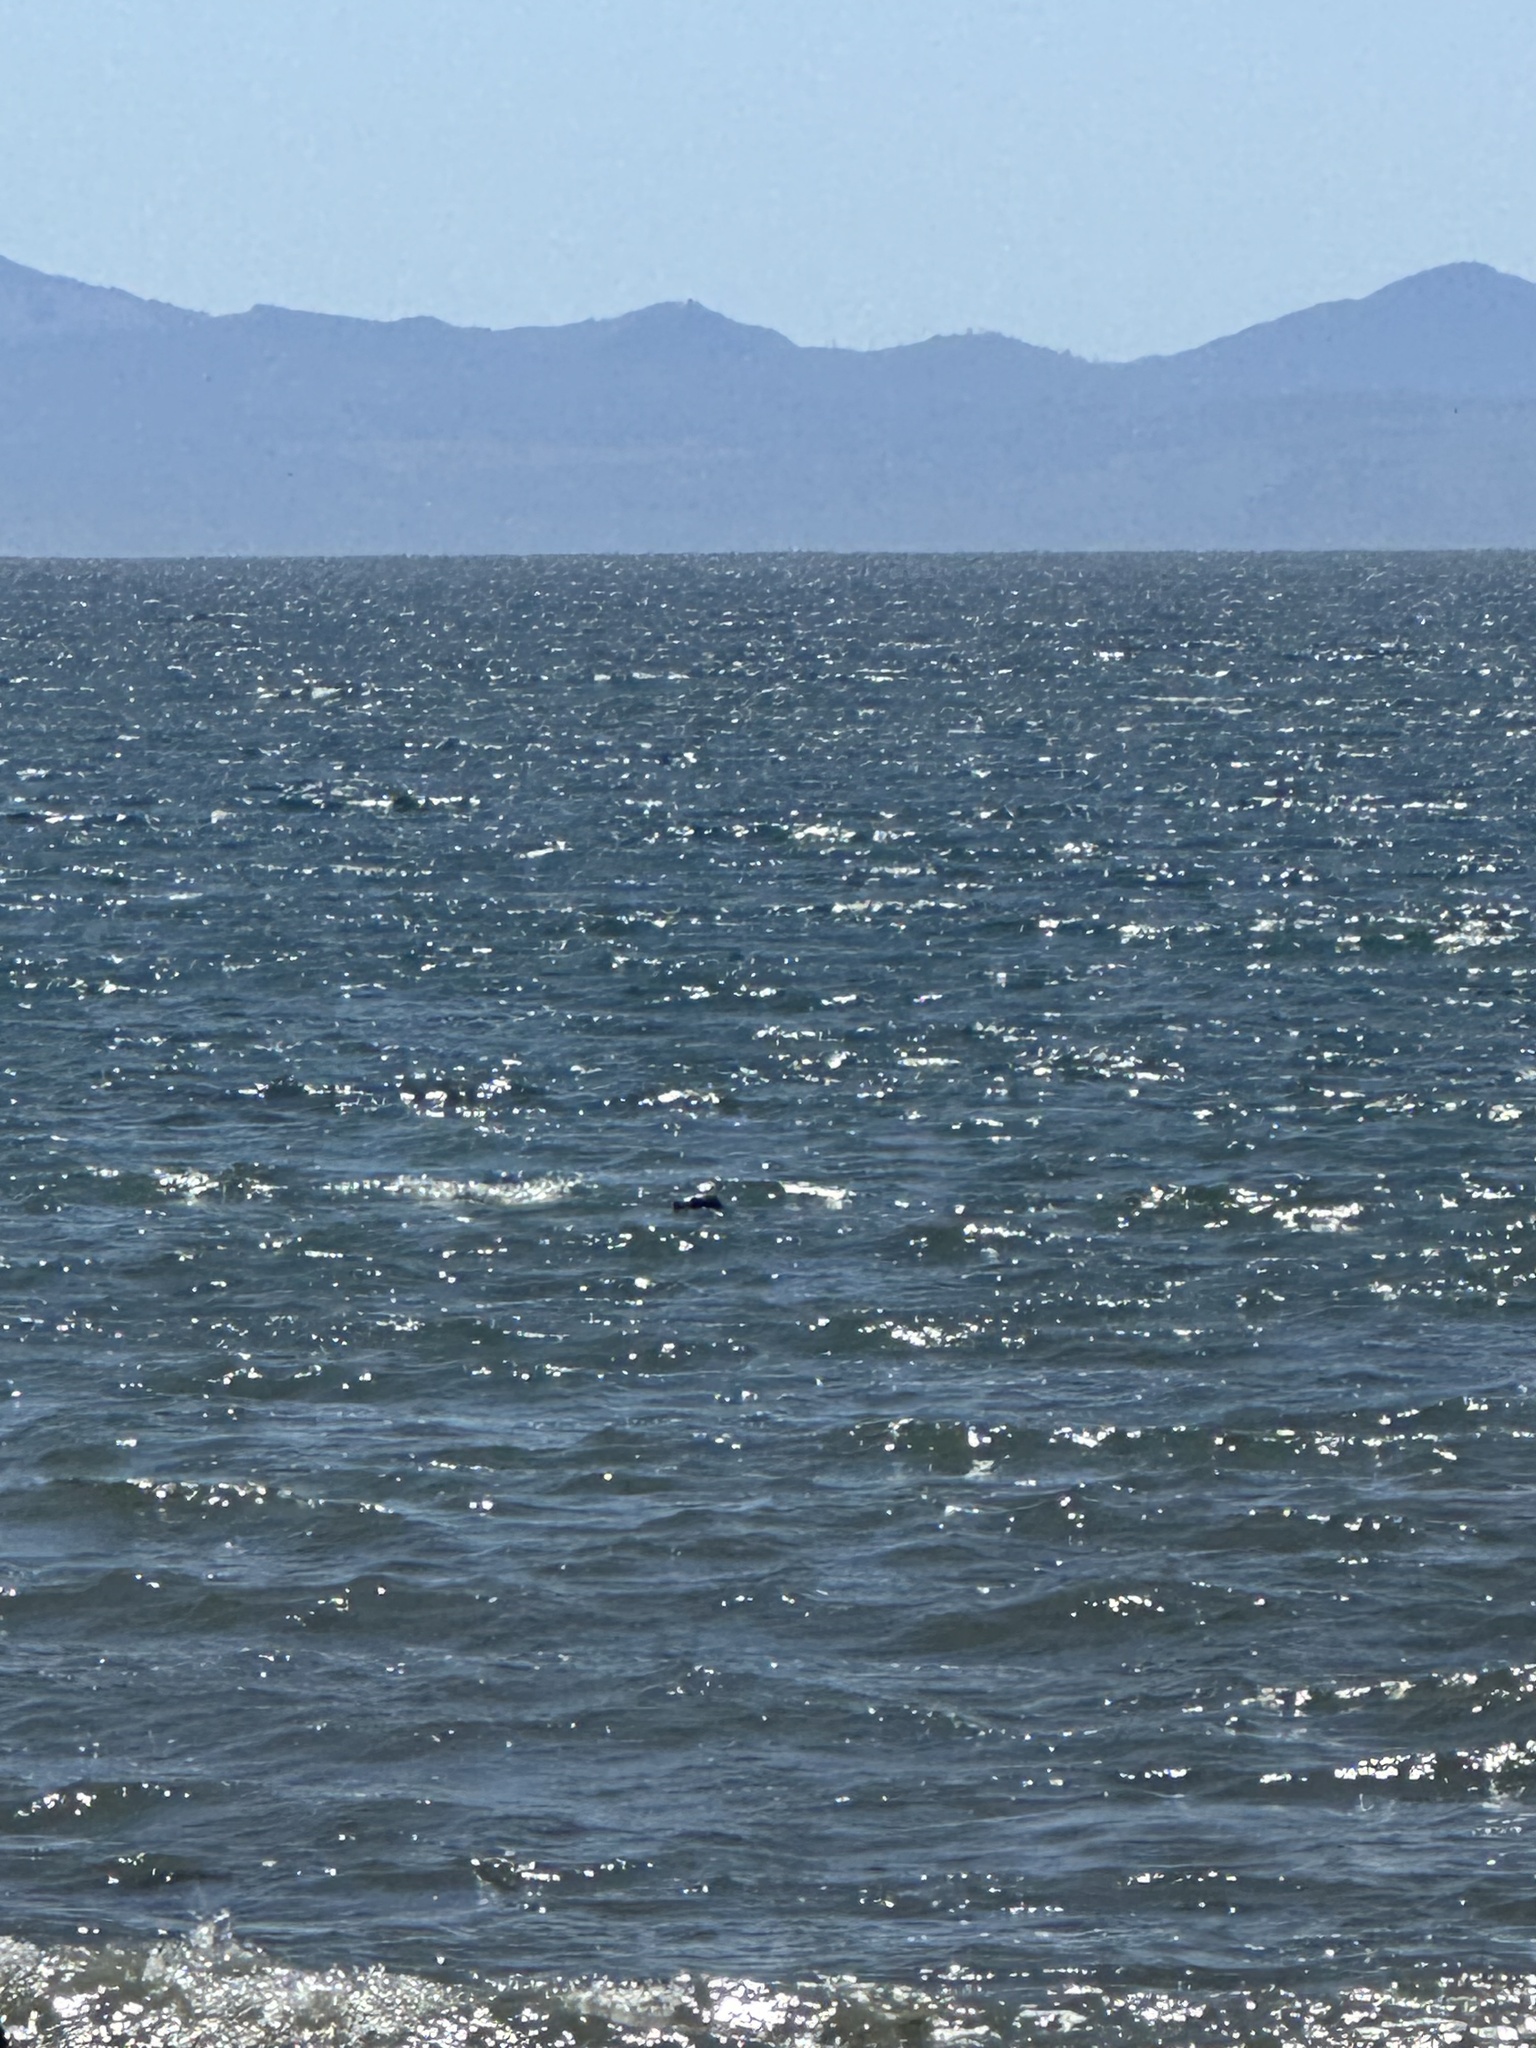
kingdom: Animalia
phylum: Chordata
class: Mammalia
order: Carnivora
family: Phocidae
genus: Phoca
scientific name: Phoca vitulina
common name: Harbor seal
